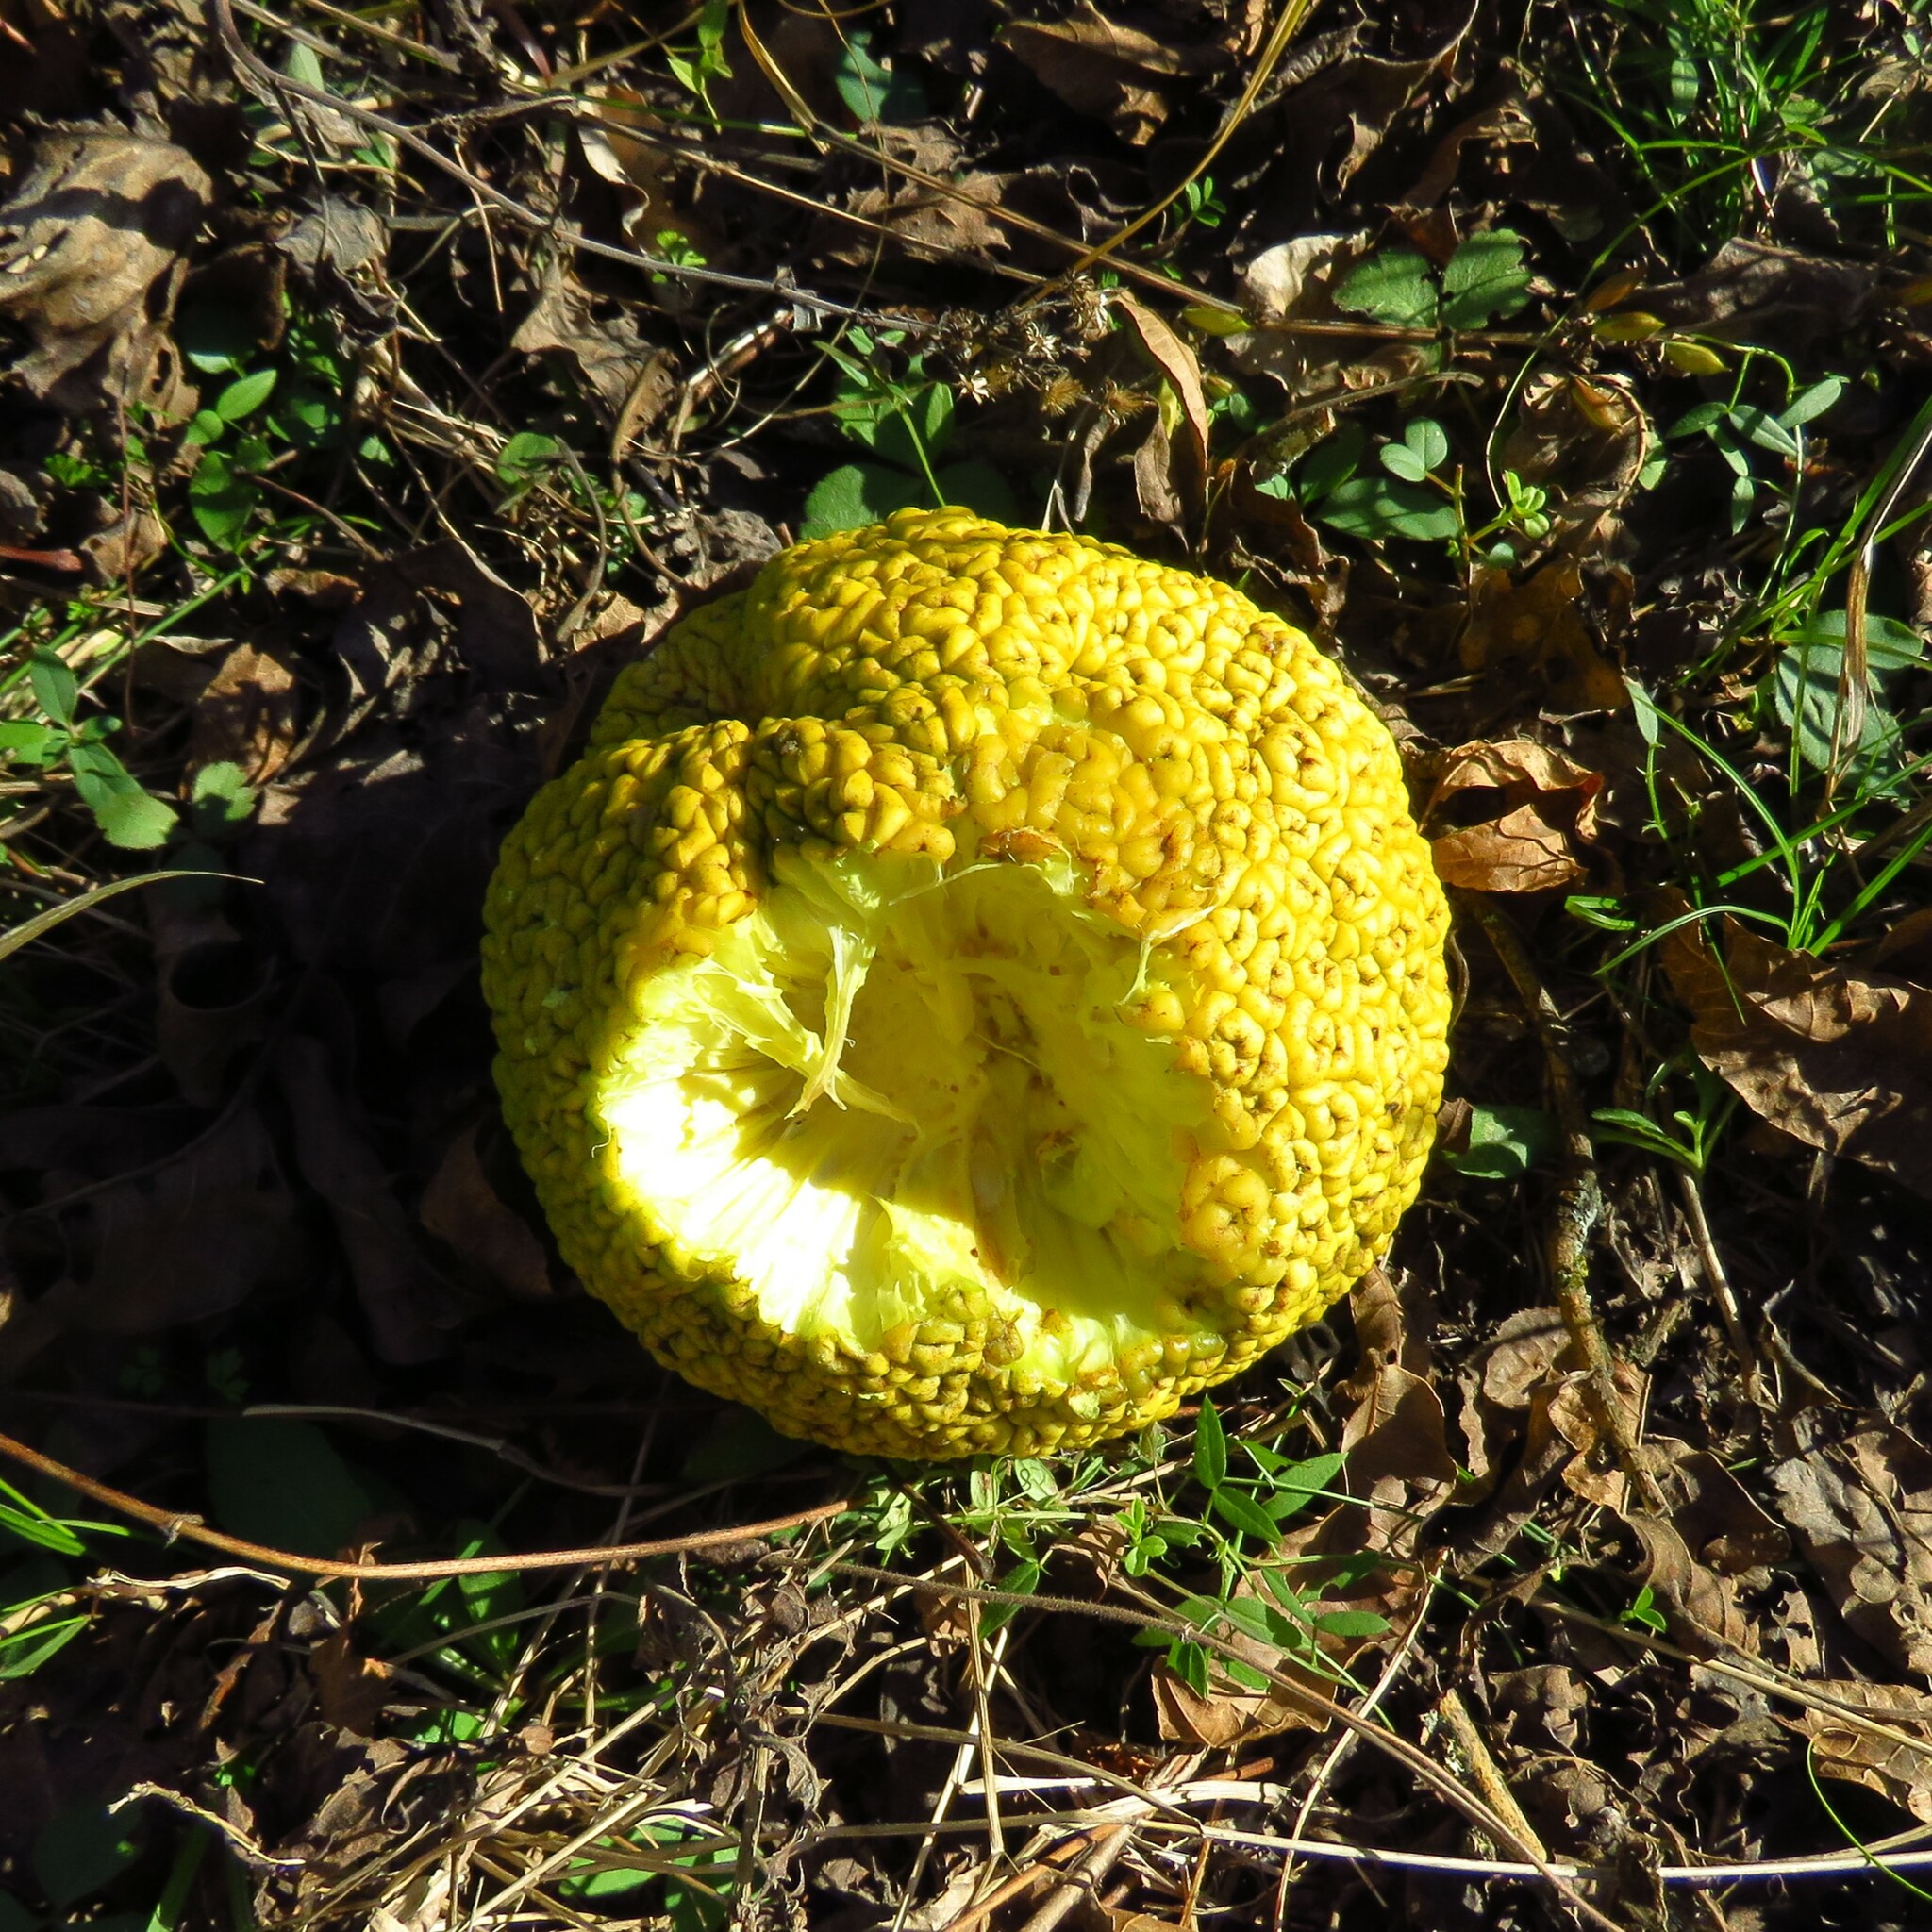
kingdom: Plantae
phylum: Tracheophyta
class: Magnoliopsida
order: Rosales
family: Moraceae
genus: Maclura
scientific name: Maclura pomifera
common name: Osage-orange
